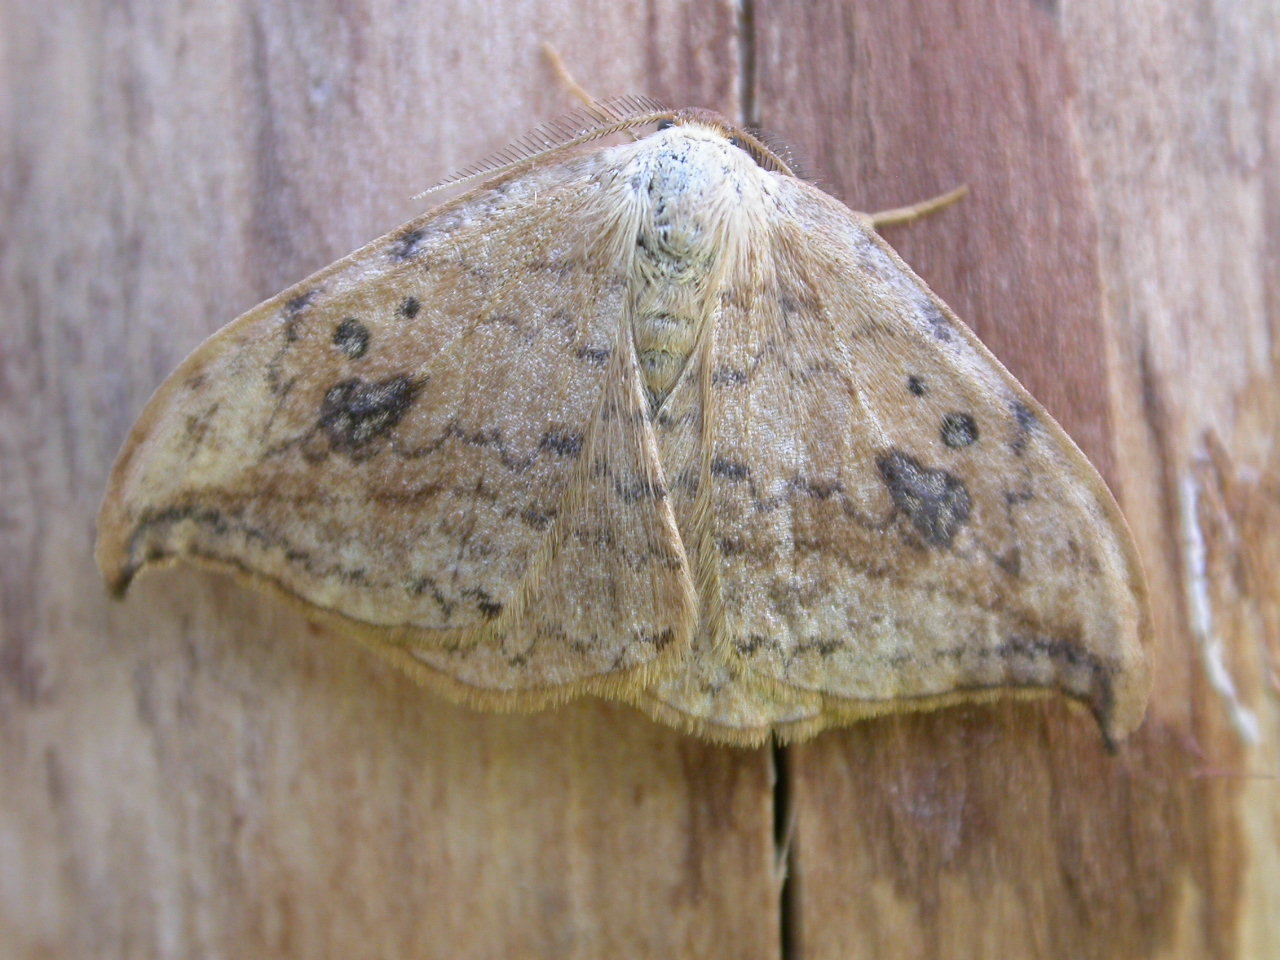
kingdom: Animalia
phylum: Arthropoda
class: Insecta
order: Lepidoptera
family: Drepanidae
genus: Drepana
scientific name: Drepana falcataria
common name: Pebble hook-tip
